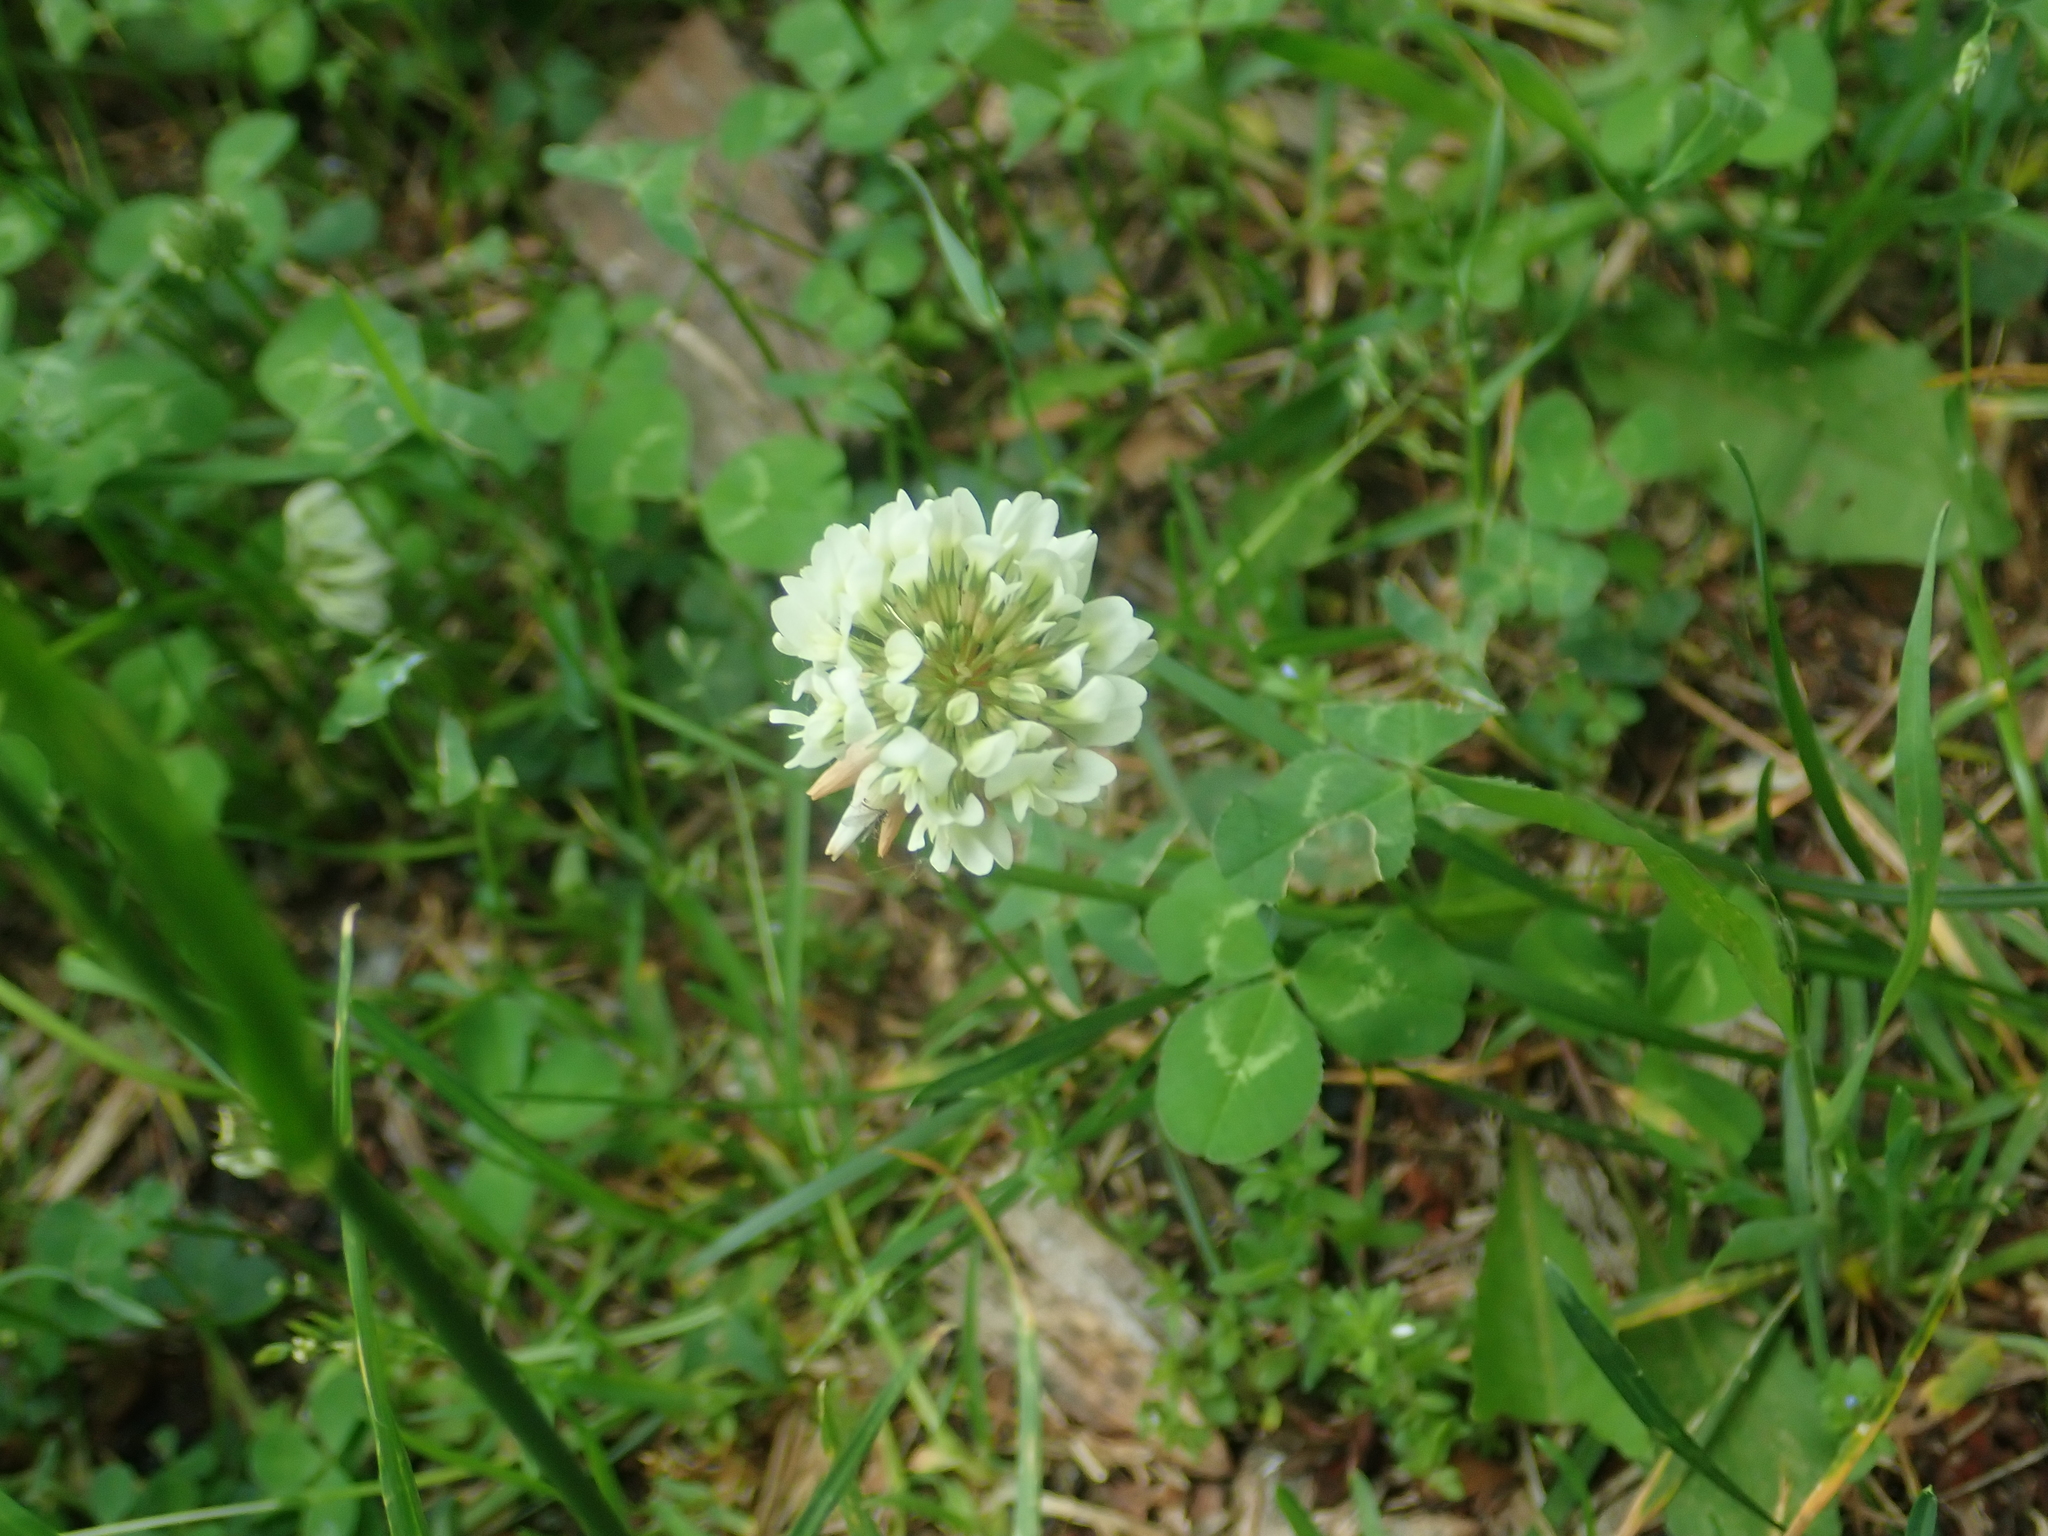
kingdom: Plantae
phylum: Tracheophyta
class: Magnoliopsida
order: Fabales
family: Fabaceae
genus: Trifolium
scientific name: Trifolium repens
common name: White clover
